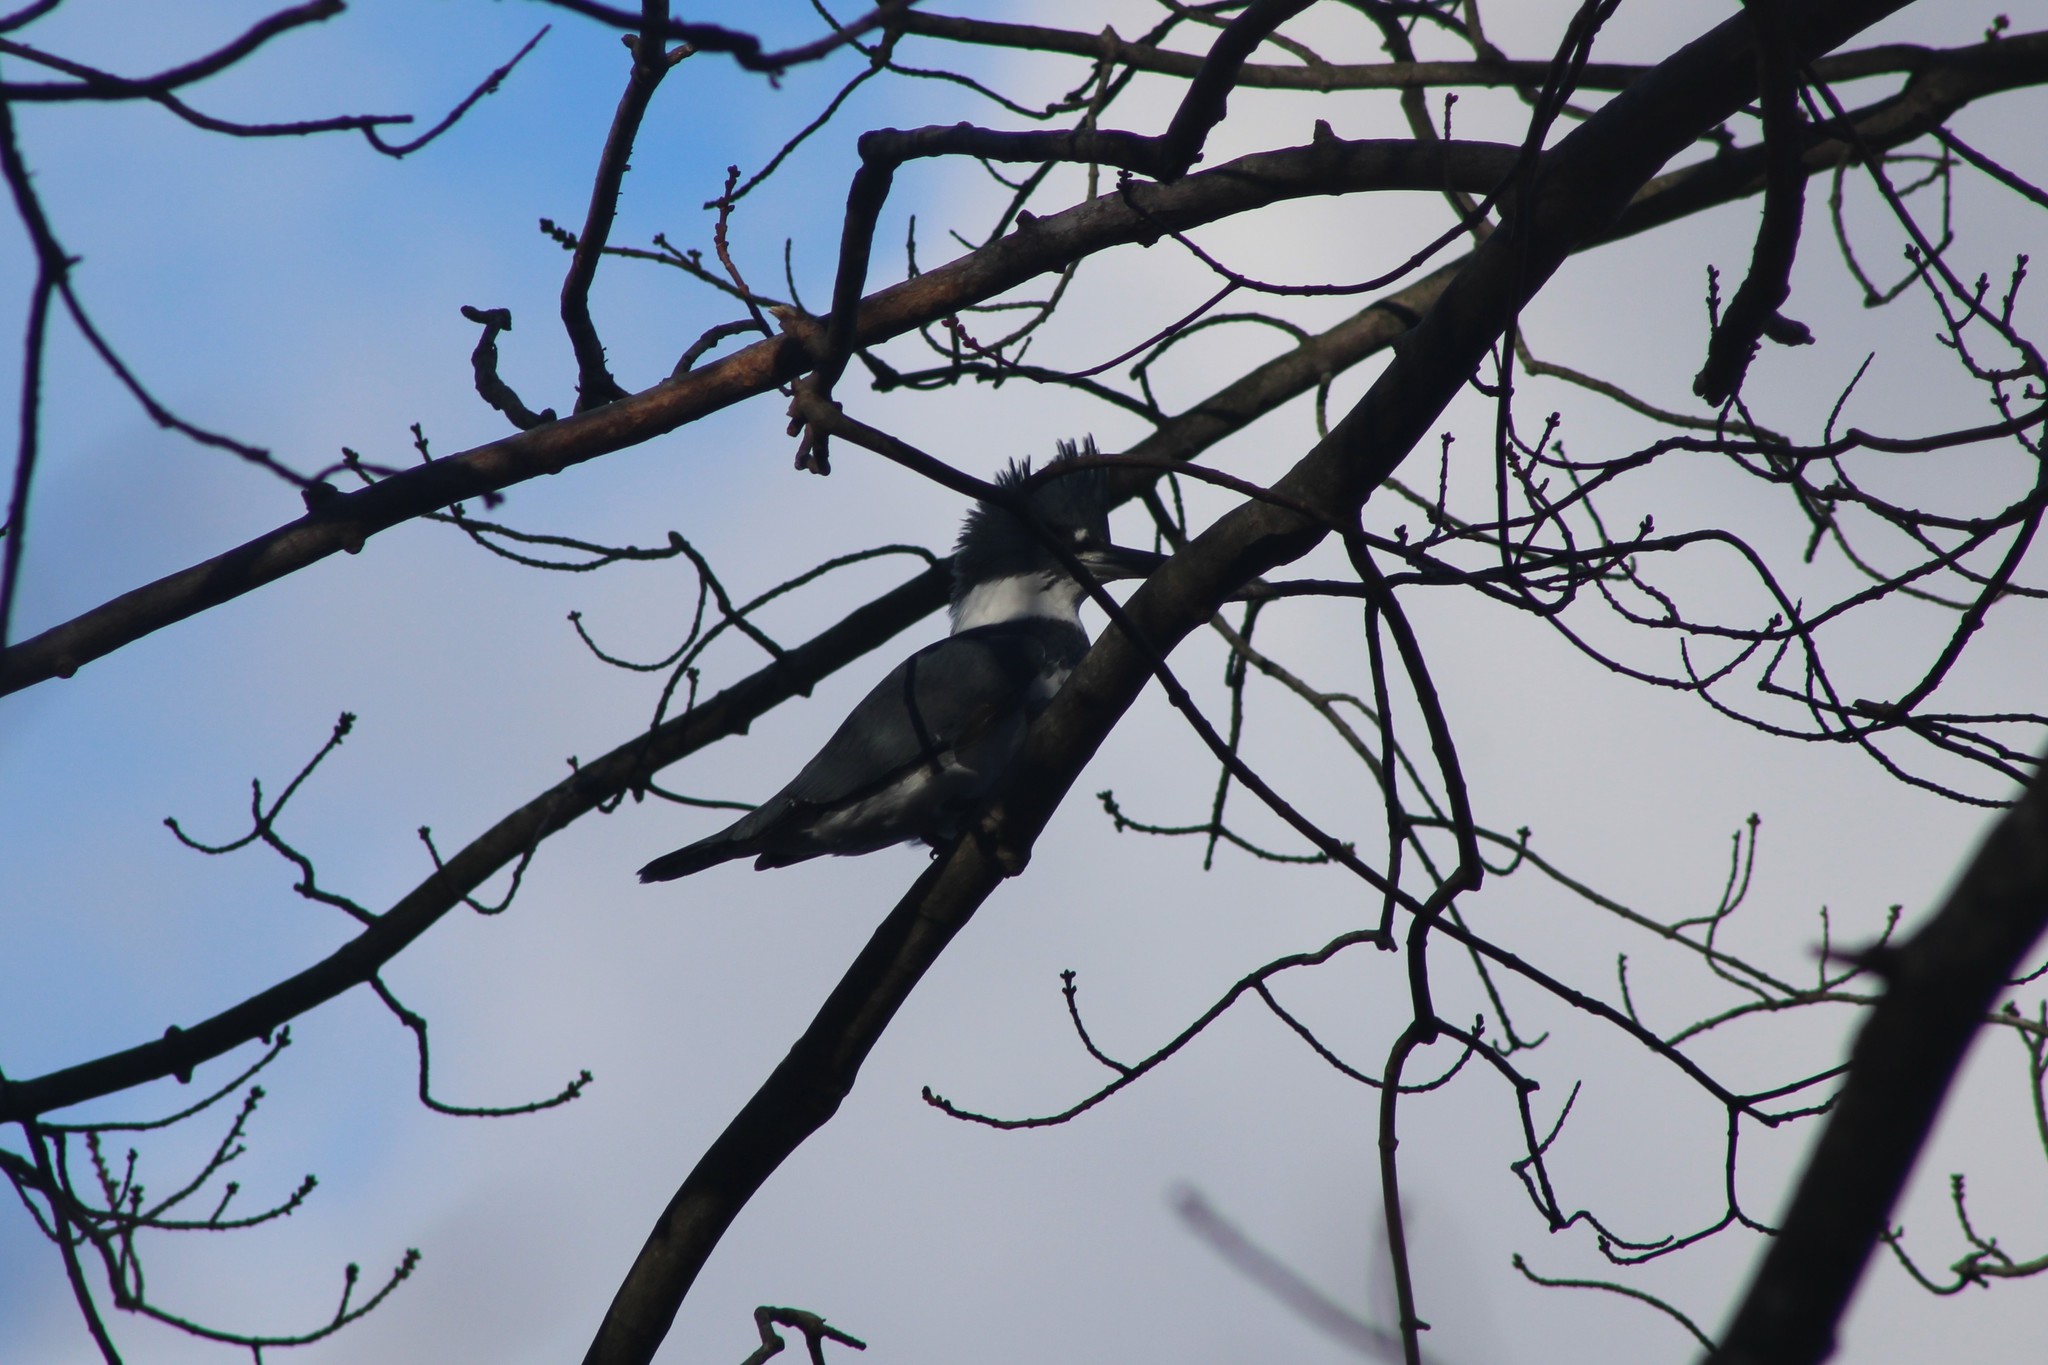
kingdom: Animalia
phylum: Chordata
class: Aves
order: Coraciiformes
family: Alcedinidae
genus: Megaceryle
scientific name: Megaceryle alcyon
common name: Belted kingfisher
